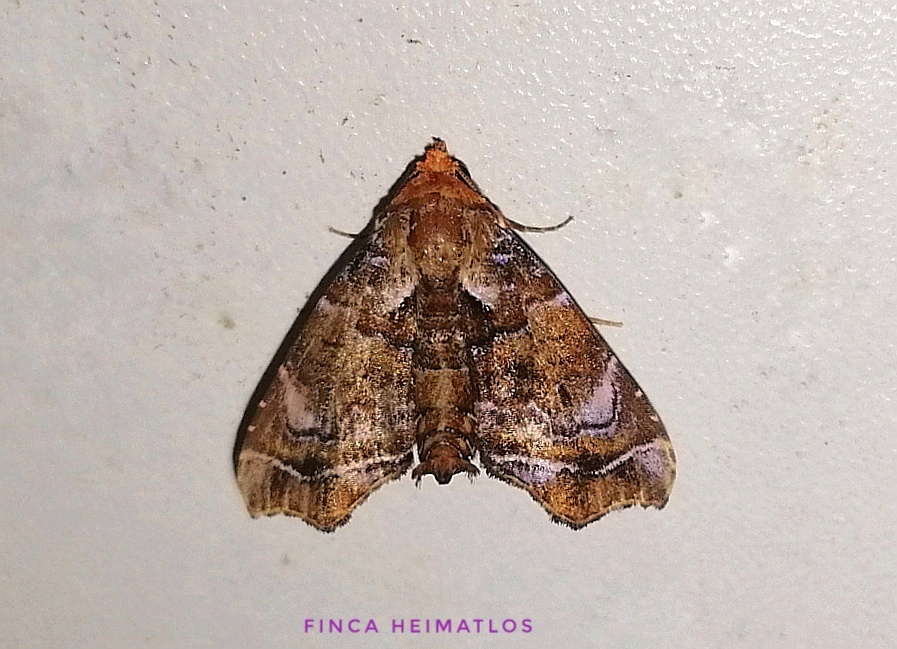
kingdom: Animalia
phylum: Arthropoda
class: Insecta
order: Lepidoptera
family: Erebidae
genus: Cecharismena
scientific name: Cecharismena melicerta
